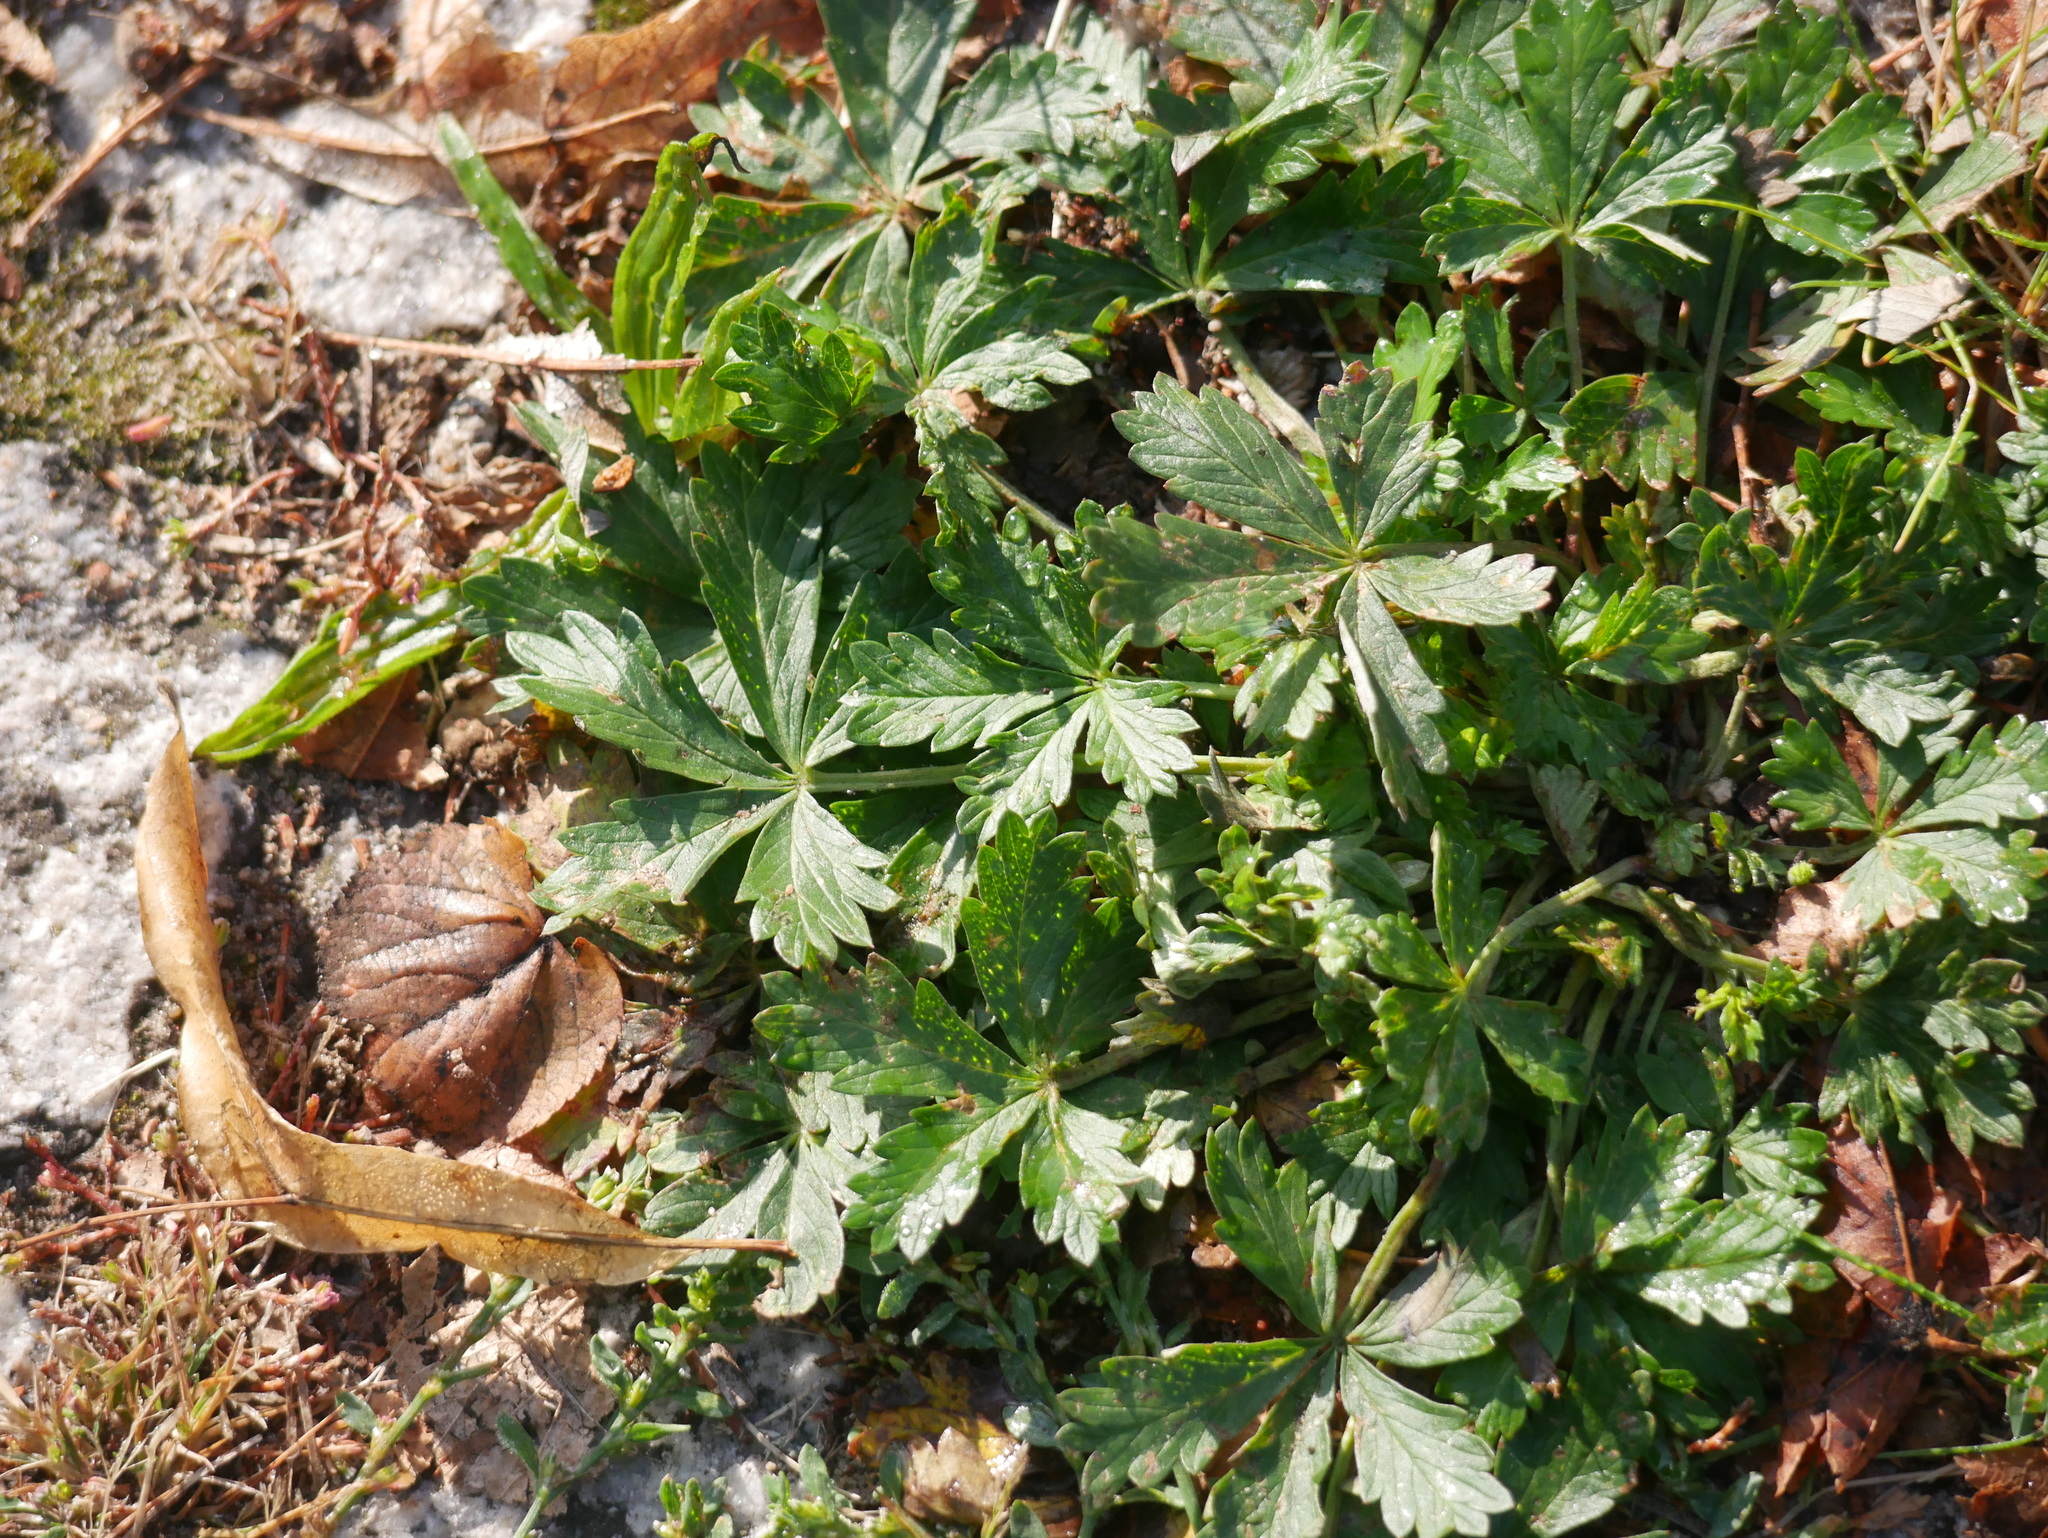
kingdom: Plantae
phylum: Tracheophyta
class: Magnoliopsida
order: Rosales
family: Rosaceae
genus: Potentilla
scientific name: Potentilla reptans
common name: Creeping cinquefoil
